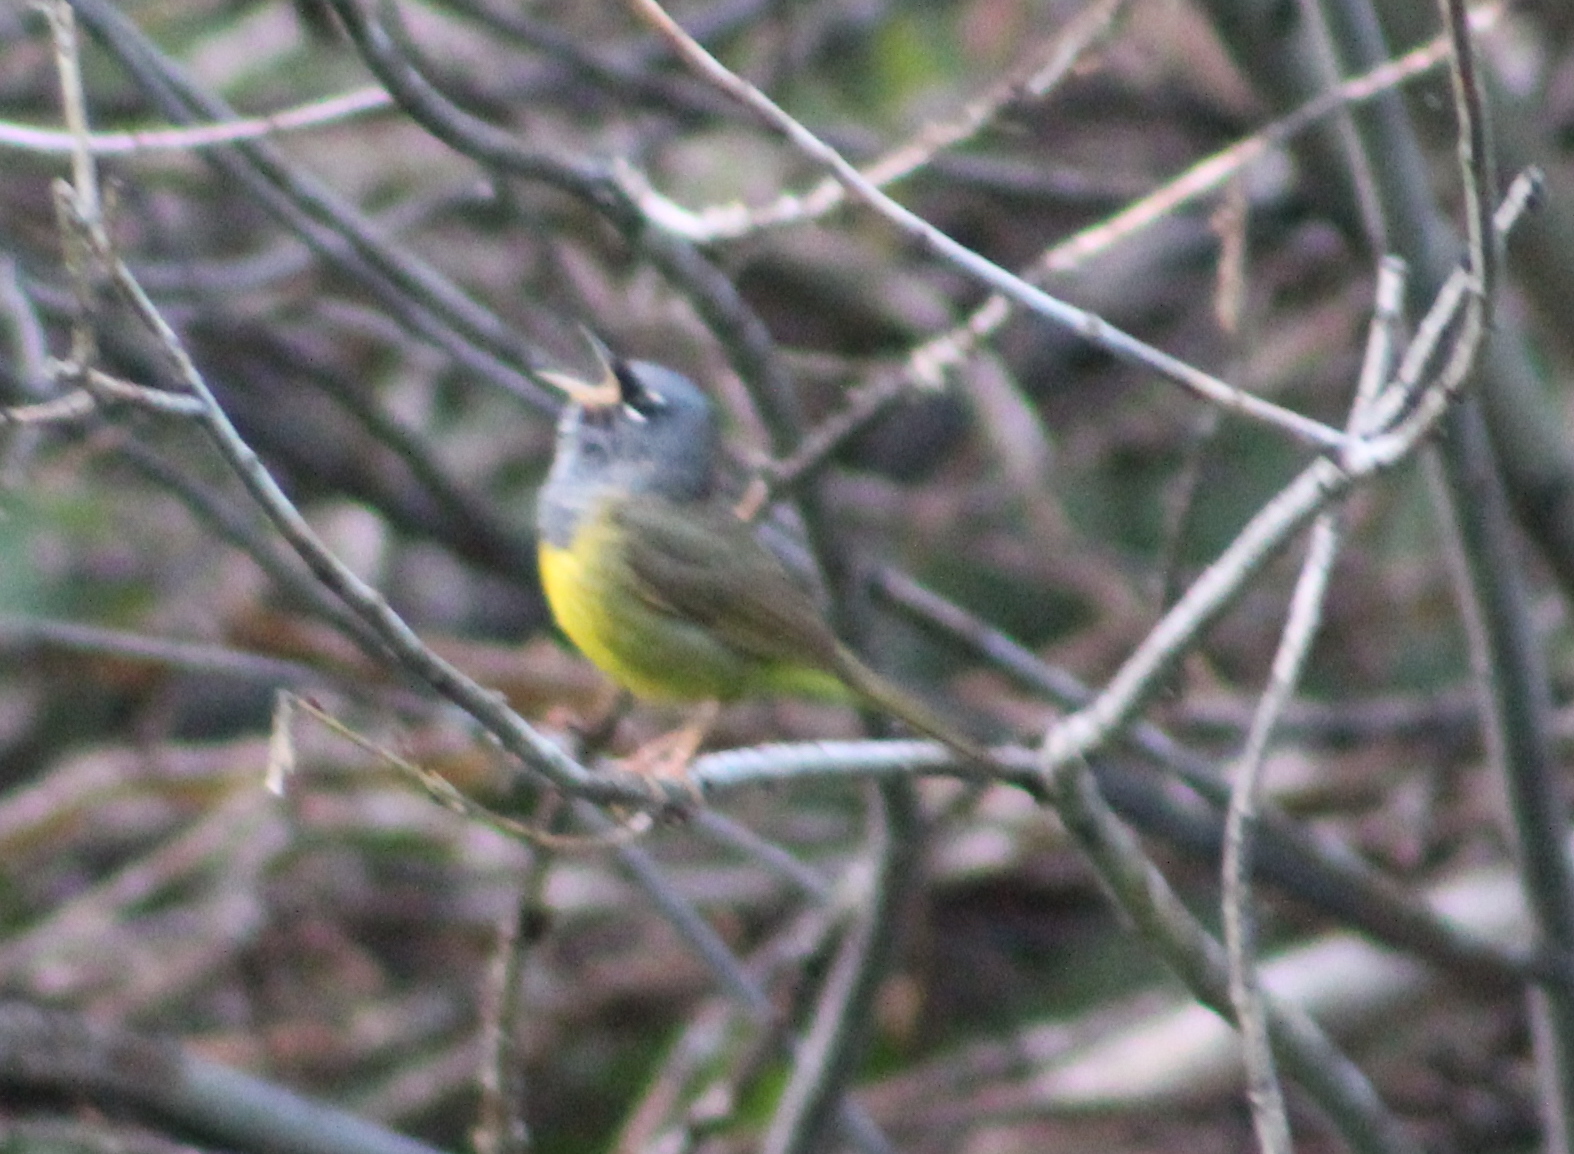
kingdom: Animalia
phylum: Chordata
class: Aves
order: Passeriformes
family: Parulidae
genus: Geothlypis
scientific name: Geothlypis tolmiei
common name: Macgillivray's warbler
